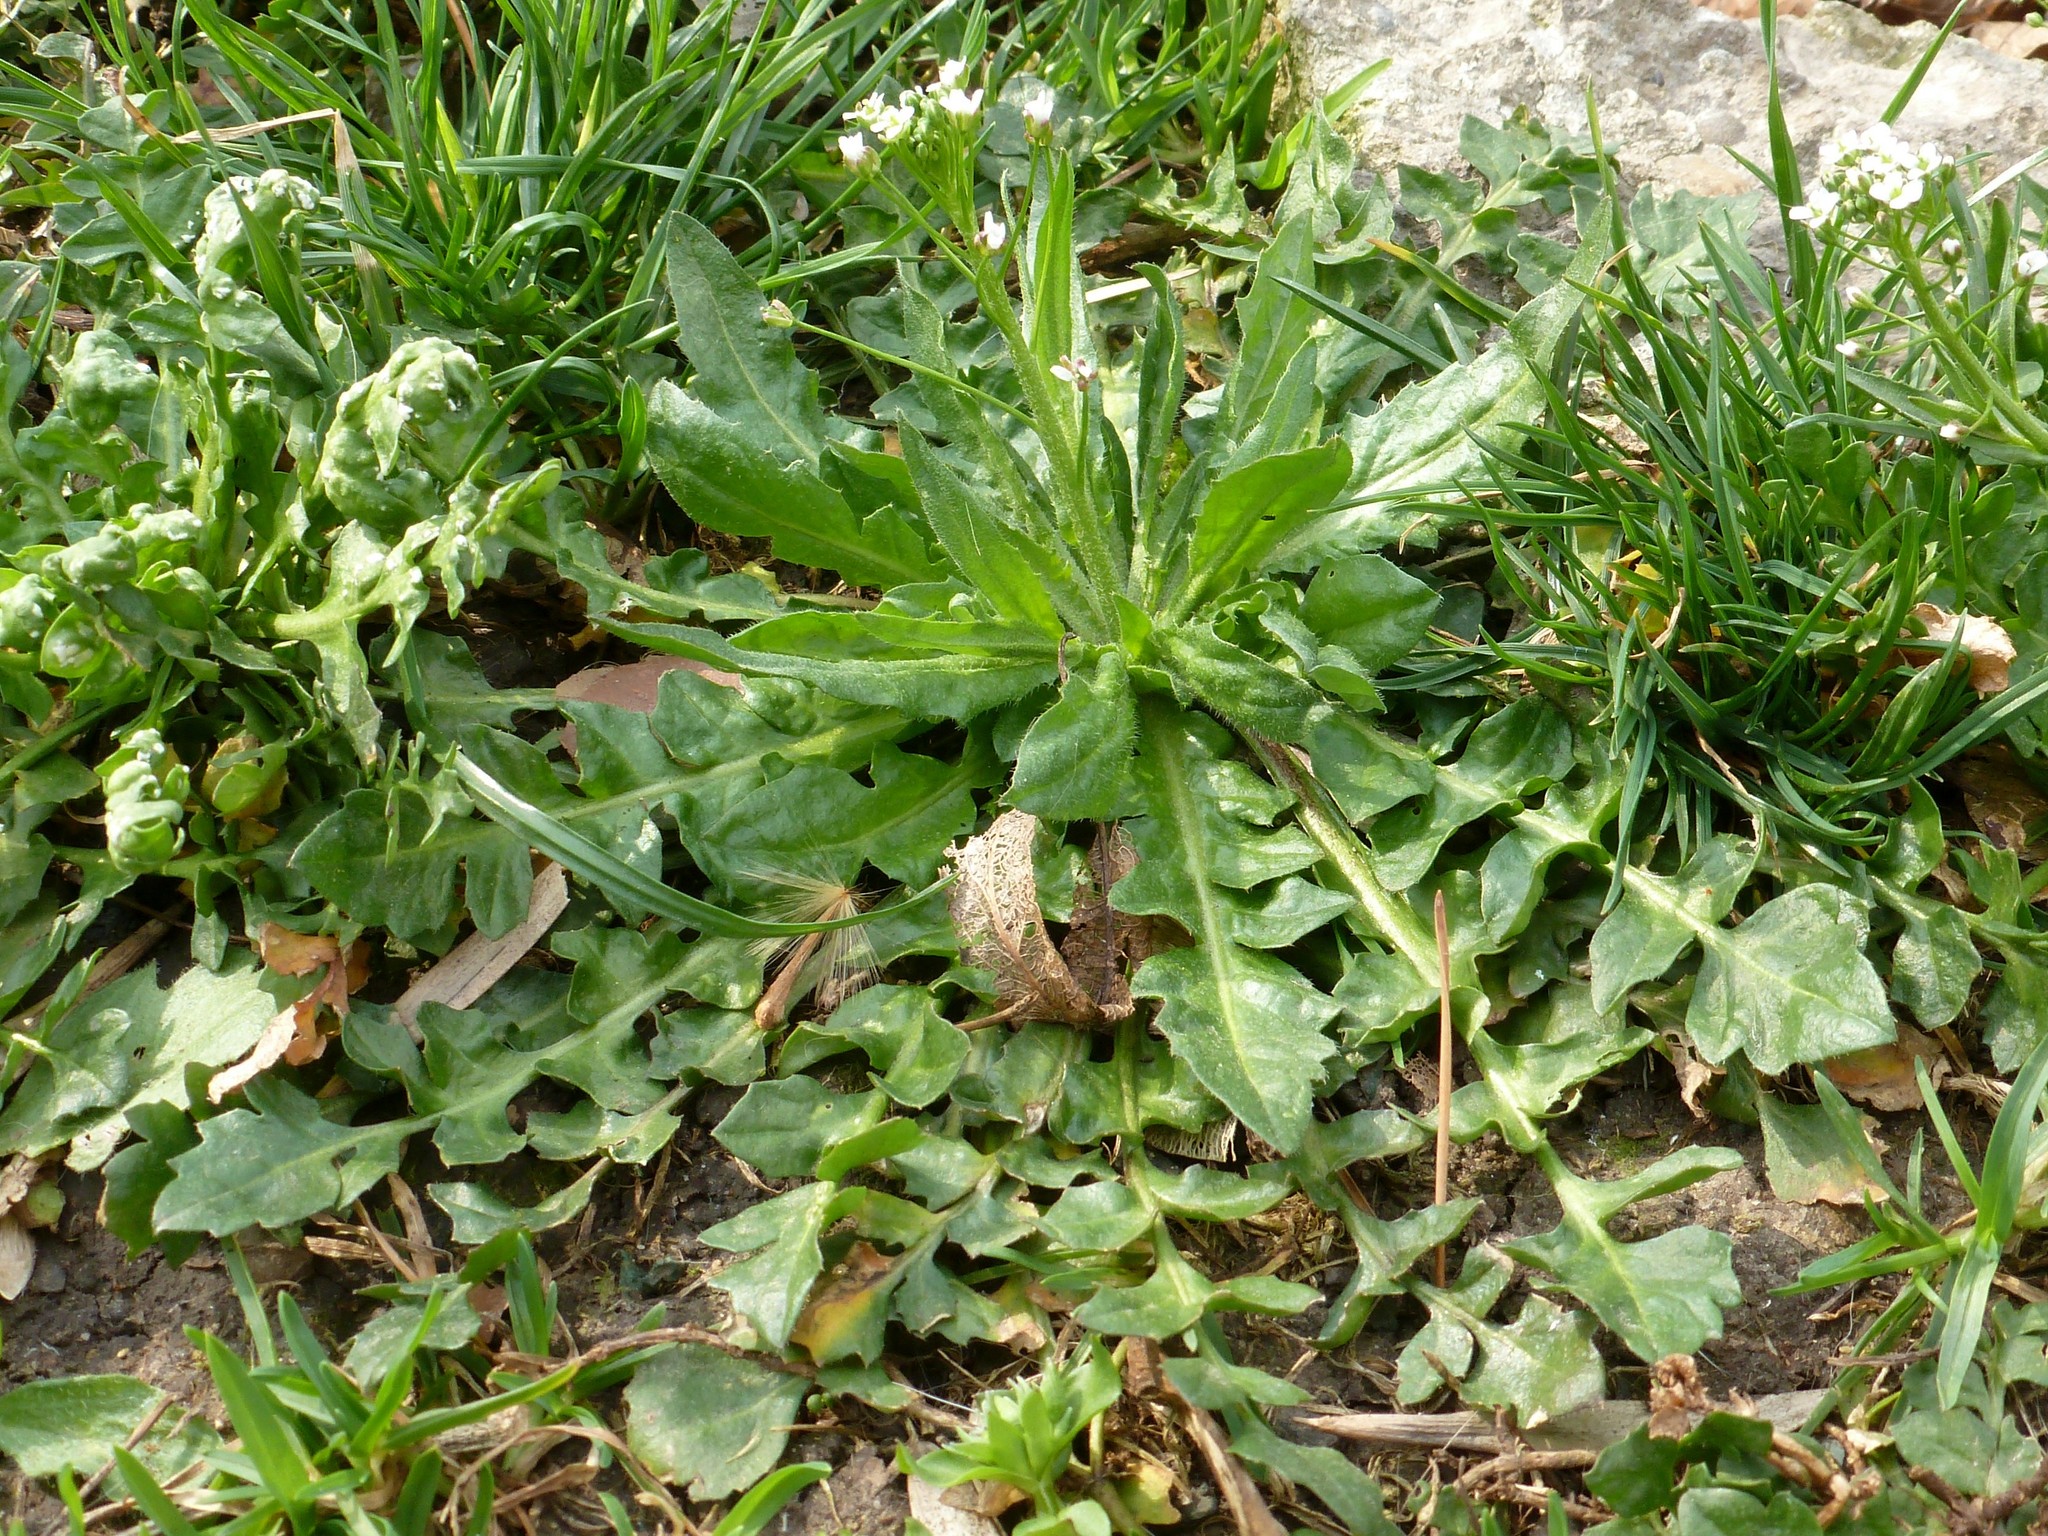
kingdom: Plantae
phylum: Tracheophyta
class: Magnoliopsida
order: Brassicales
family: Brassicaceae
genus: Capsella
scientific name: Capsella bursa-pastoris
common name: Shepherd's purse
